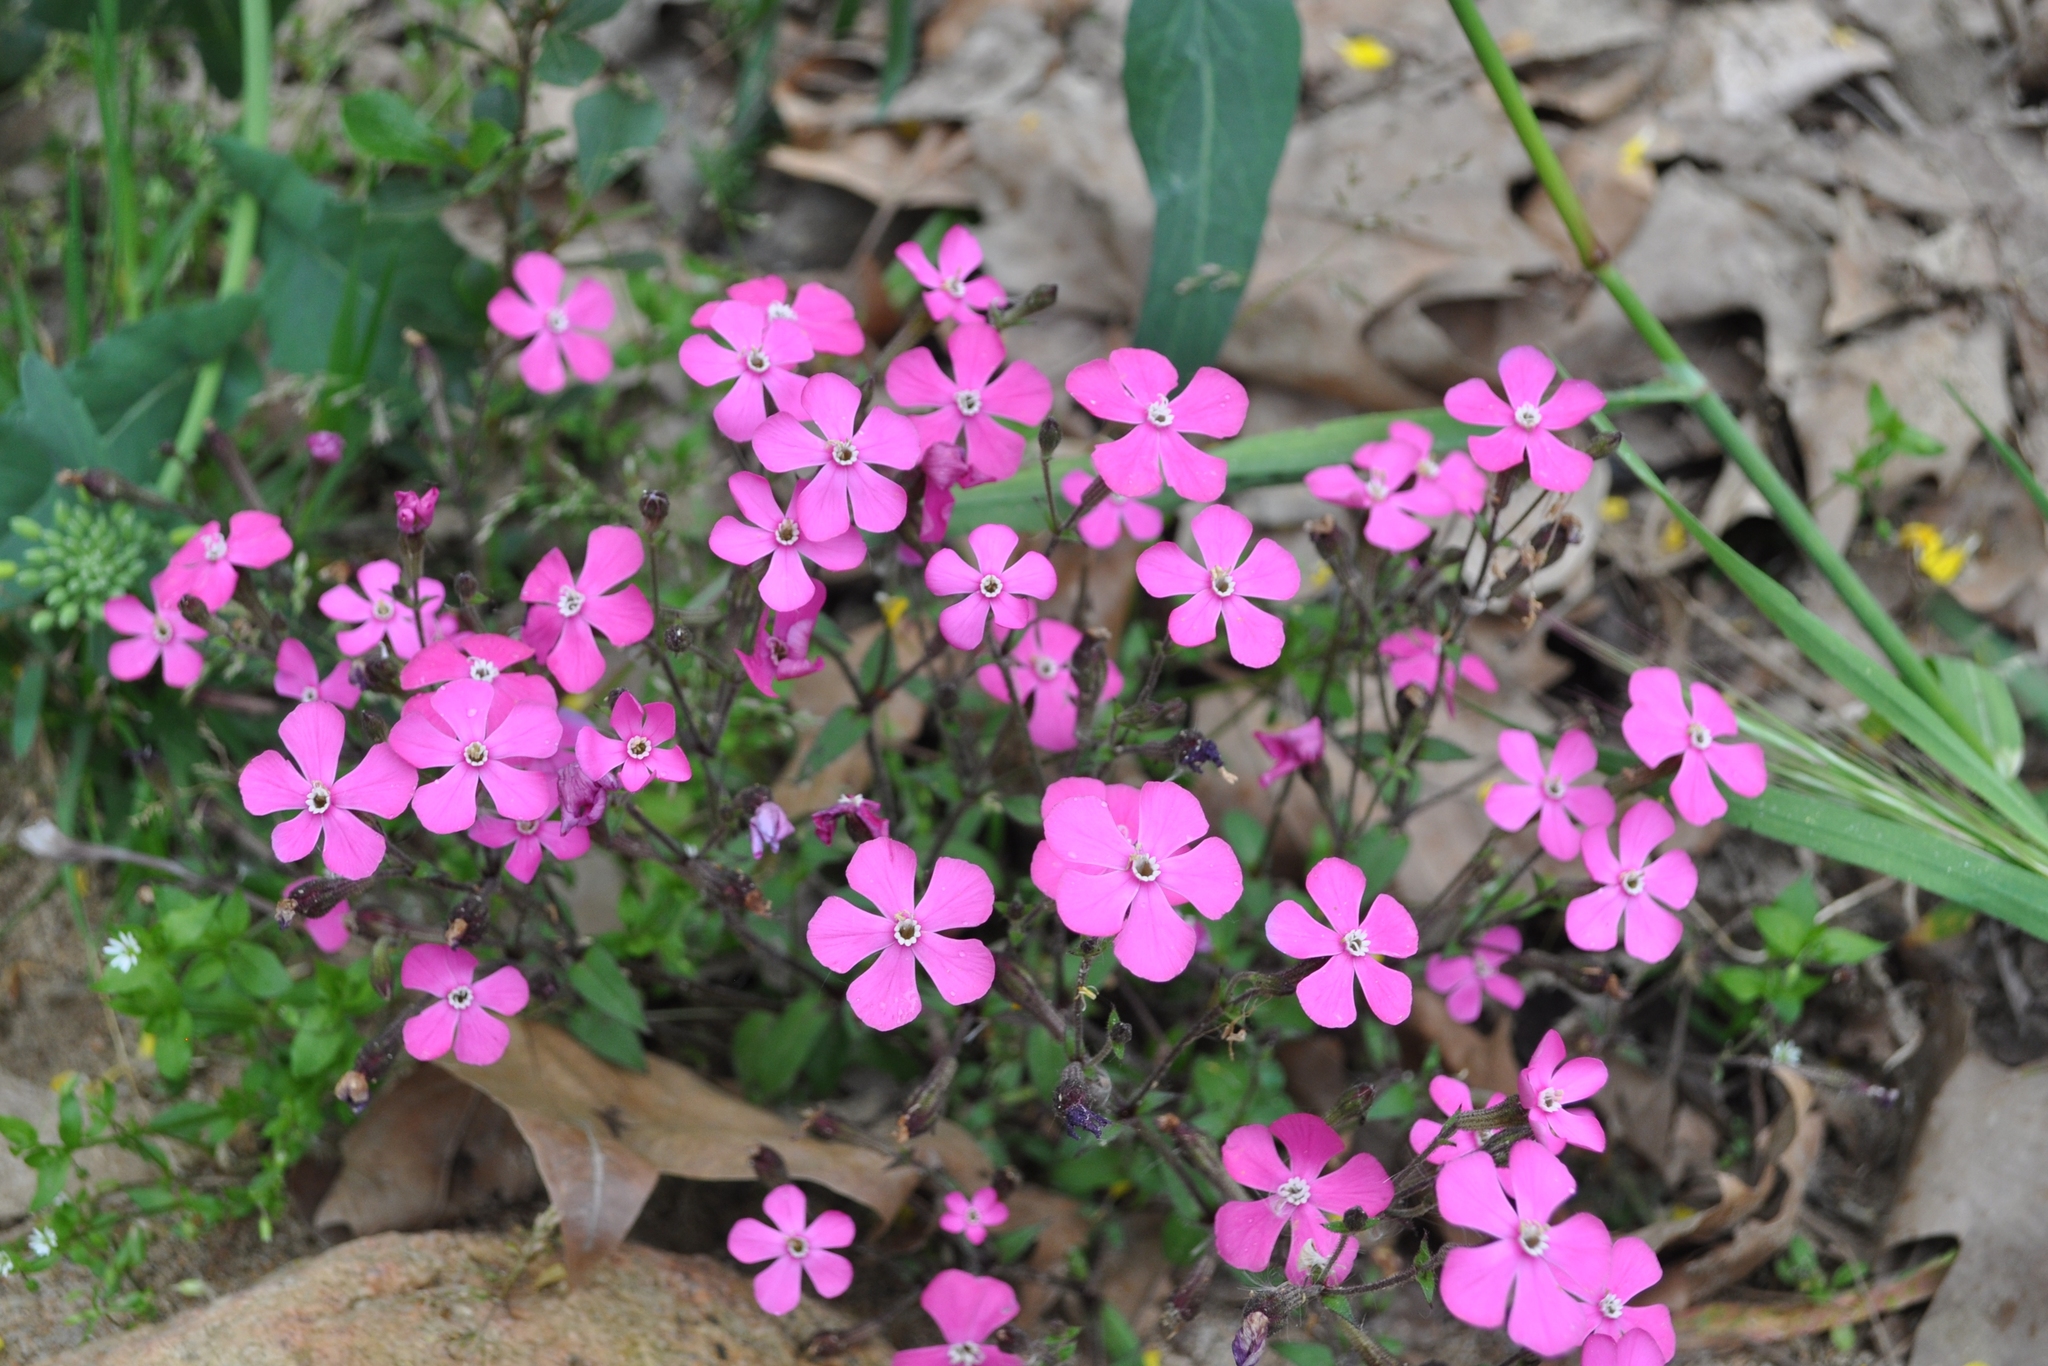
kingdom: Plantae
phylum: Tracheophyta
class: Magnoliopsida
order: Caryophyllales
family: Caryophyllaceae
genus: Silene
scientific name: Silene pseudoatocion
